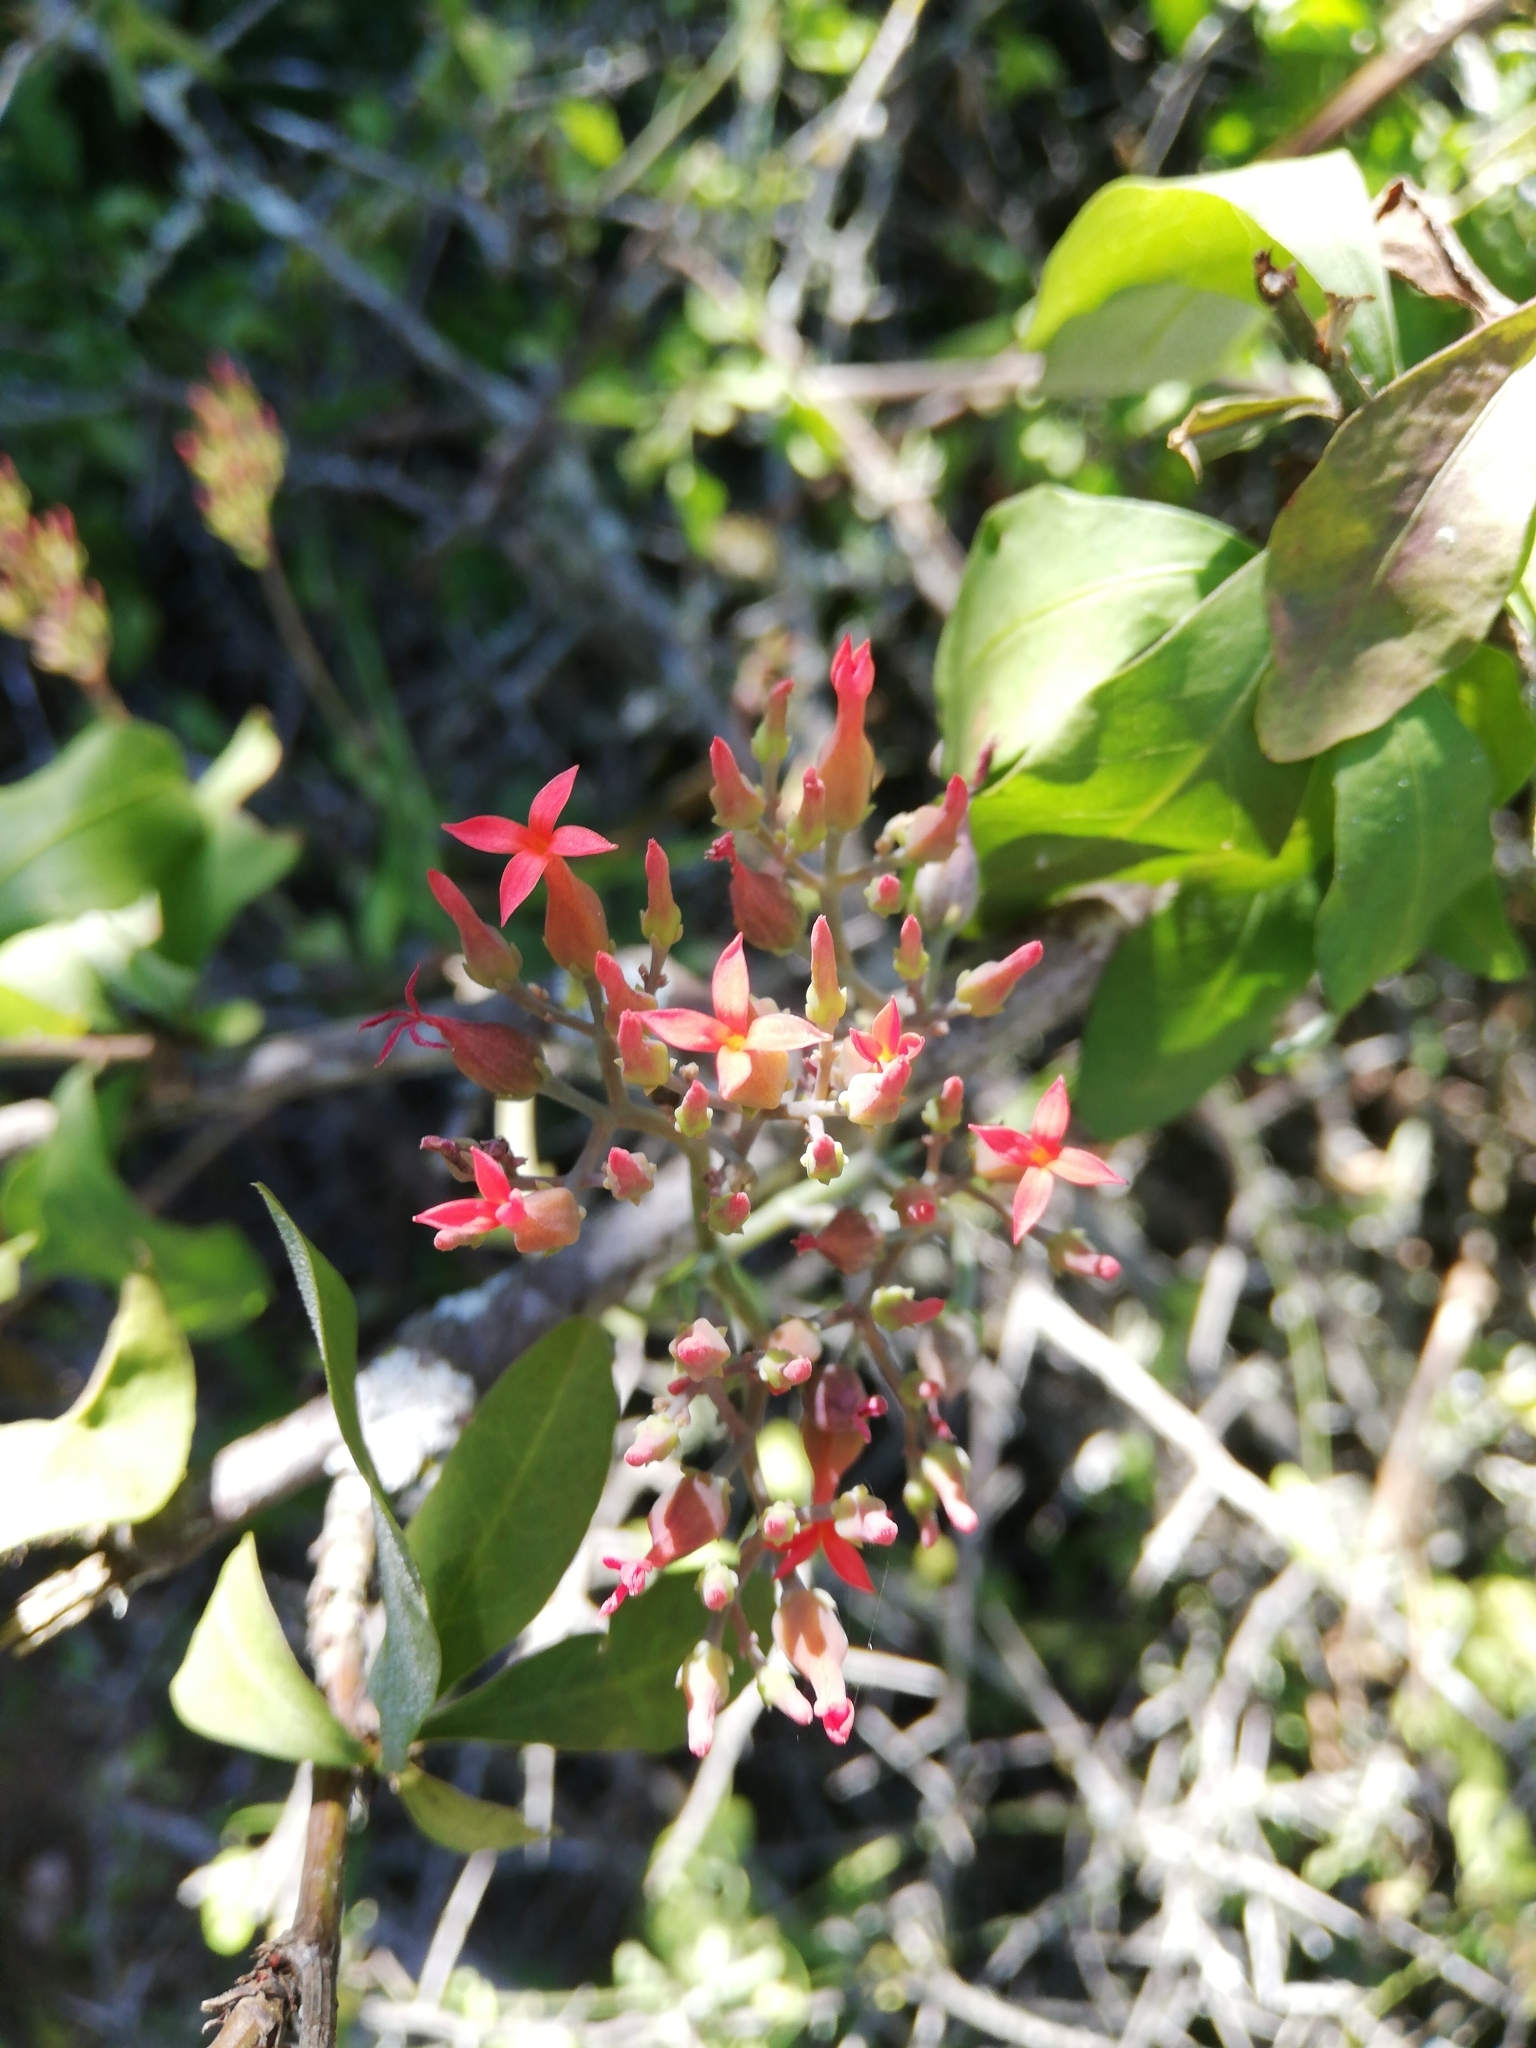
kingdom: Plantae
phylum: Tracheophyta
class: Magnoliopsida
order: Saxifragales
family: Crassulaceae
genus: Kalanchoe
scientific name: Kalanchoe rotundifolia
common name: Common kalanchoe
